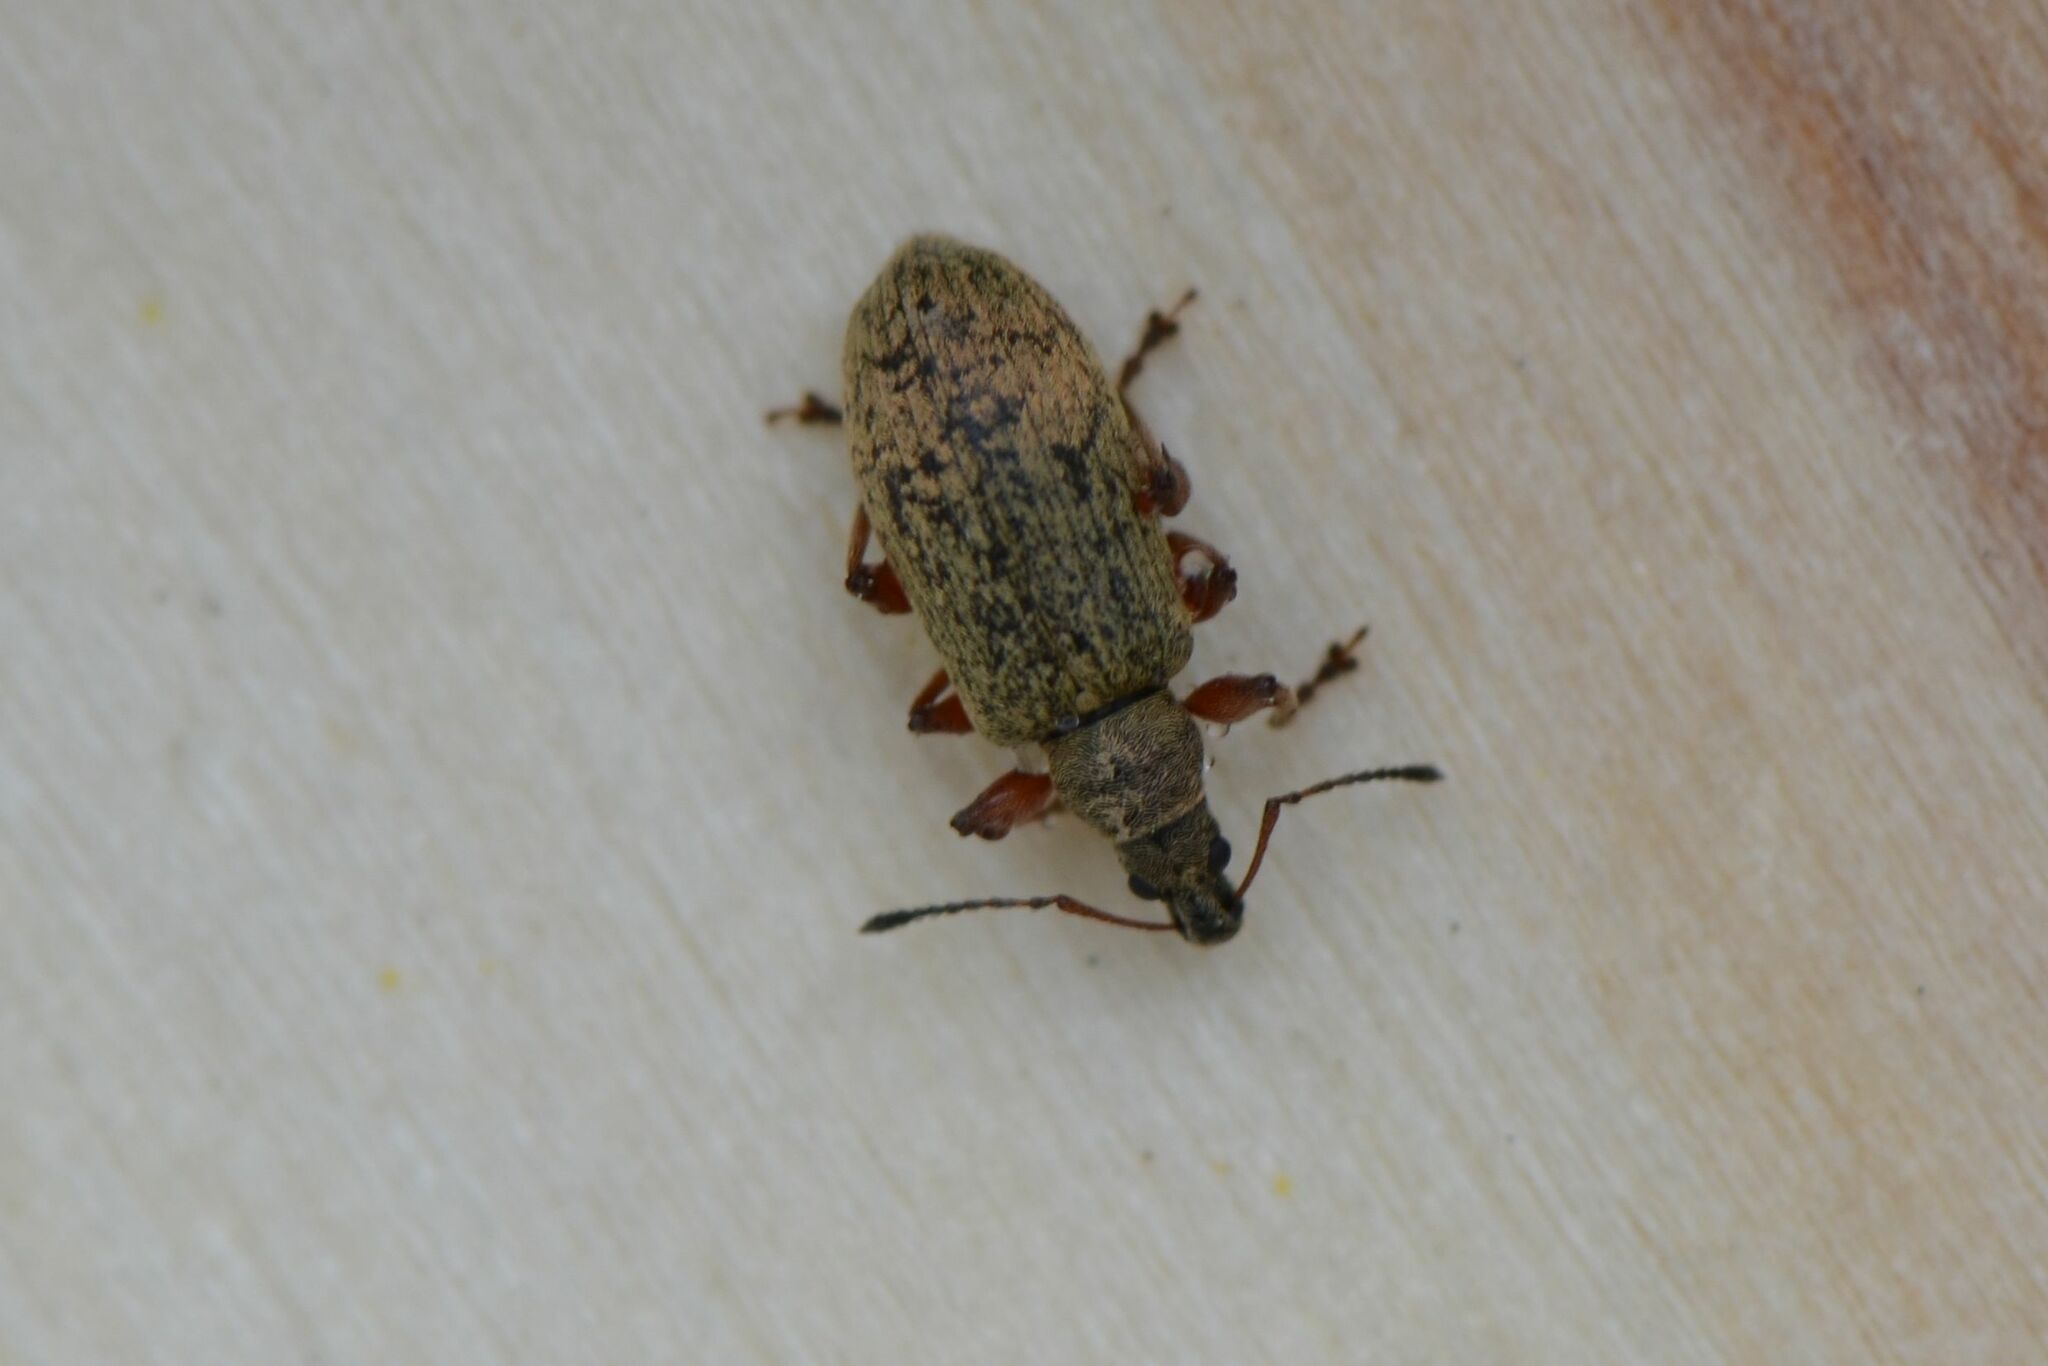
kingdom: Animalia
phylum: Arthropoda
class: Insecta
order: Coleoptera
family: Curculionidae
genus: Phyllobius
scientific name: Phyllobius glaucus
